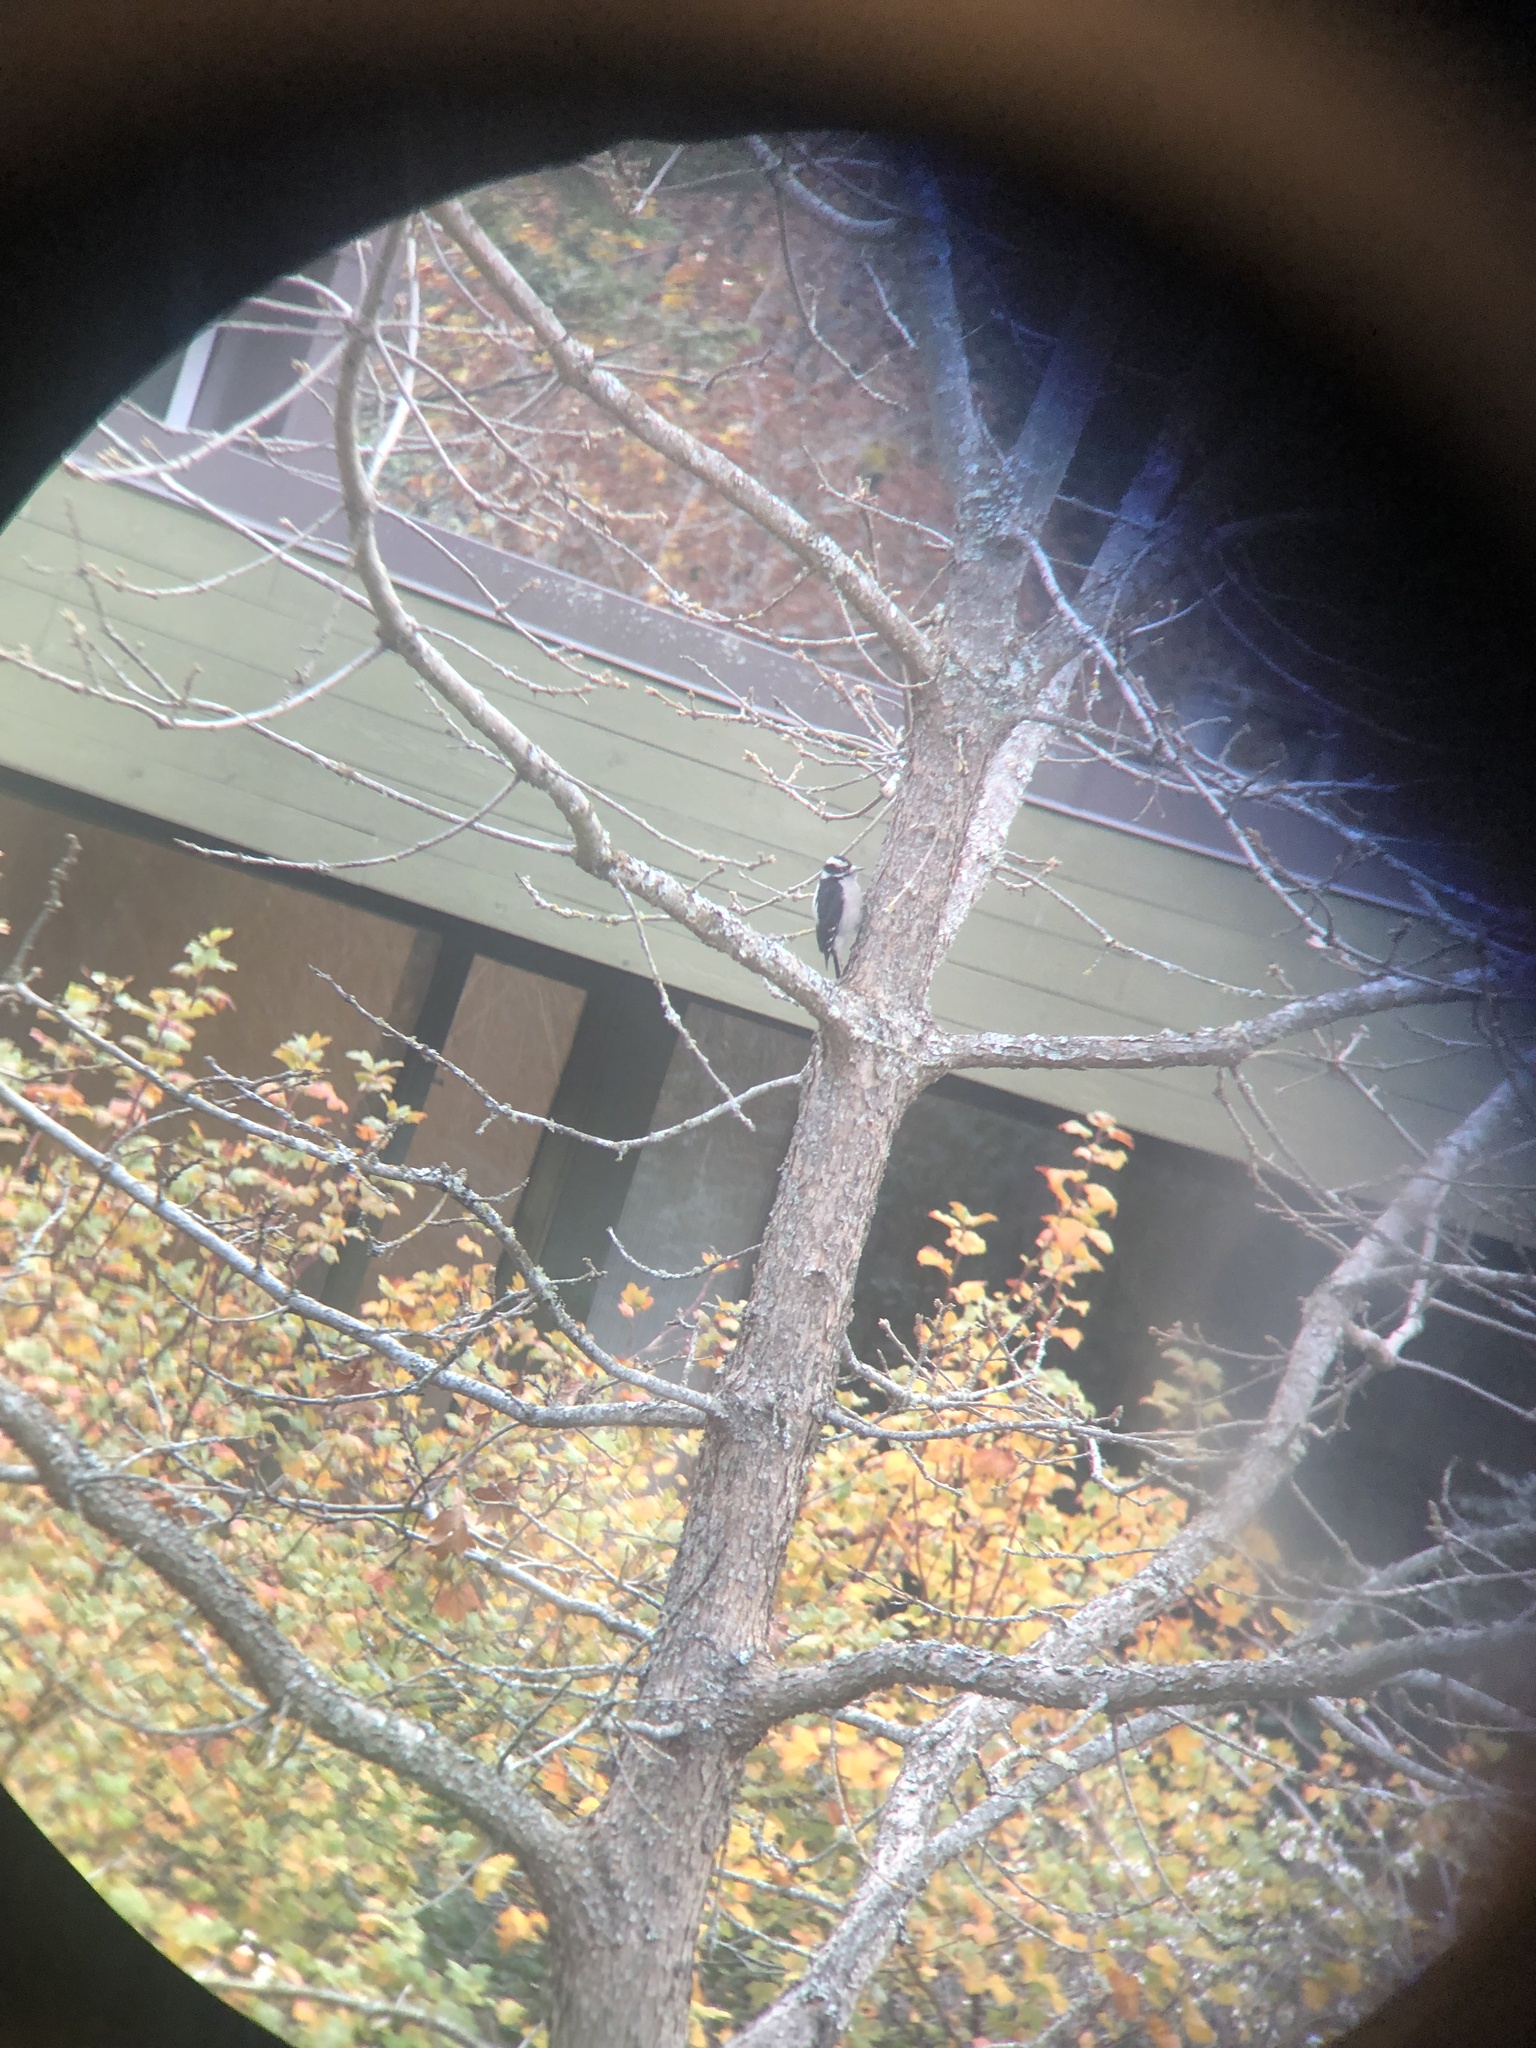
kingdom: Animalia
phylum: Chordata
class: Aves
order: Piciformes
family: Picidae
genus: Dryobates
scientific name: Dryobates pubescens
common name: Downy woodpecker
